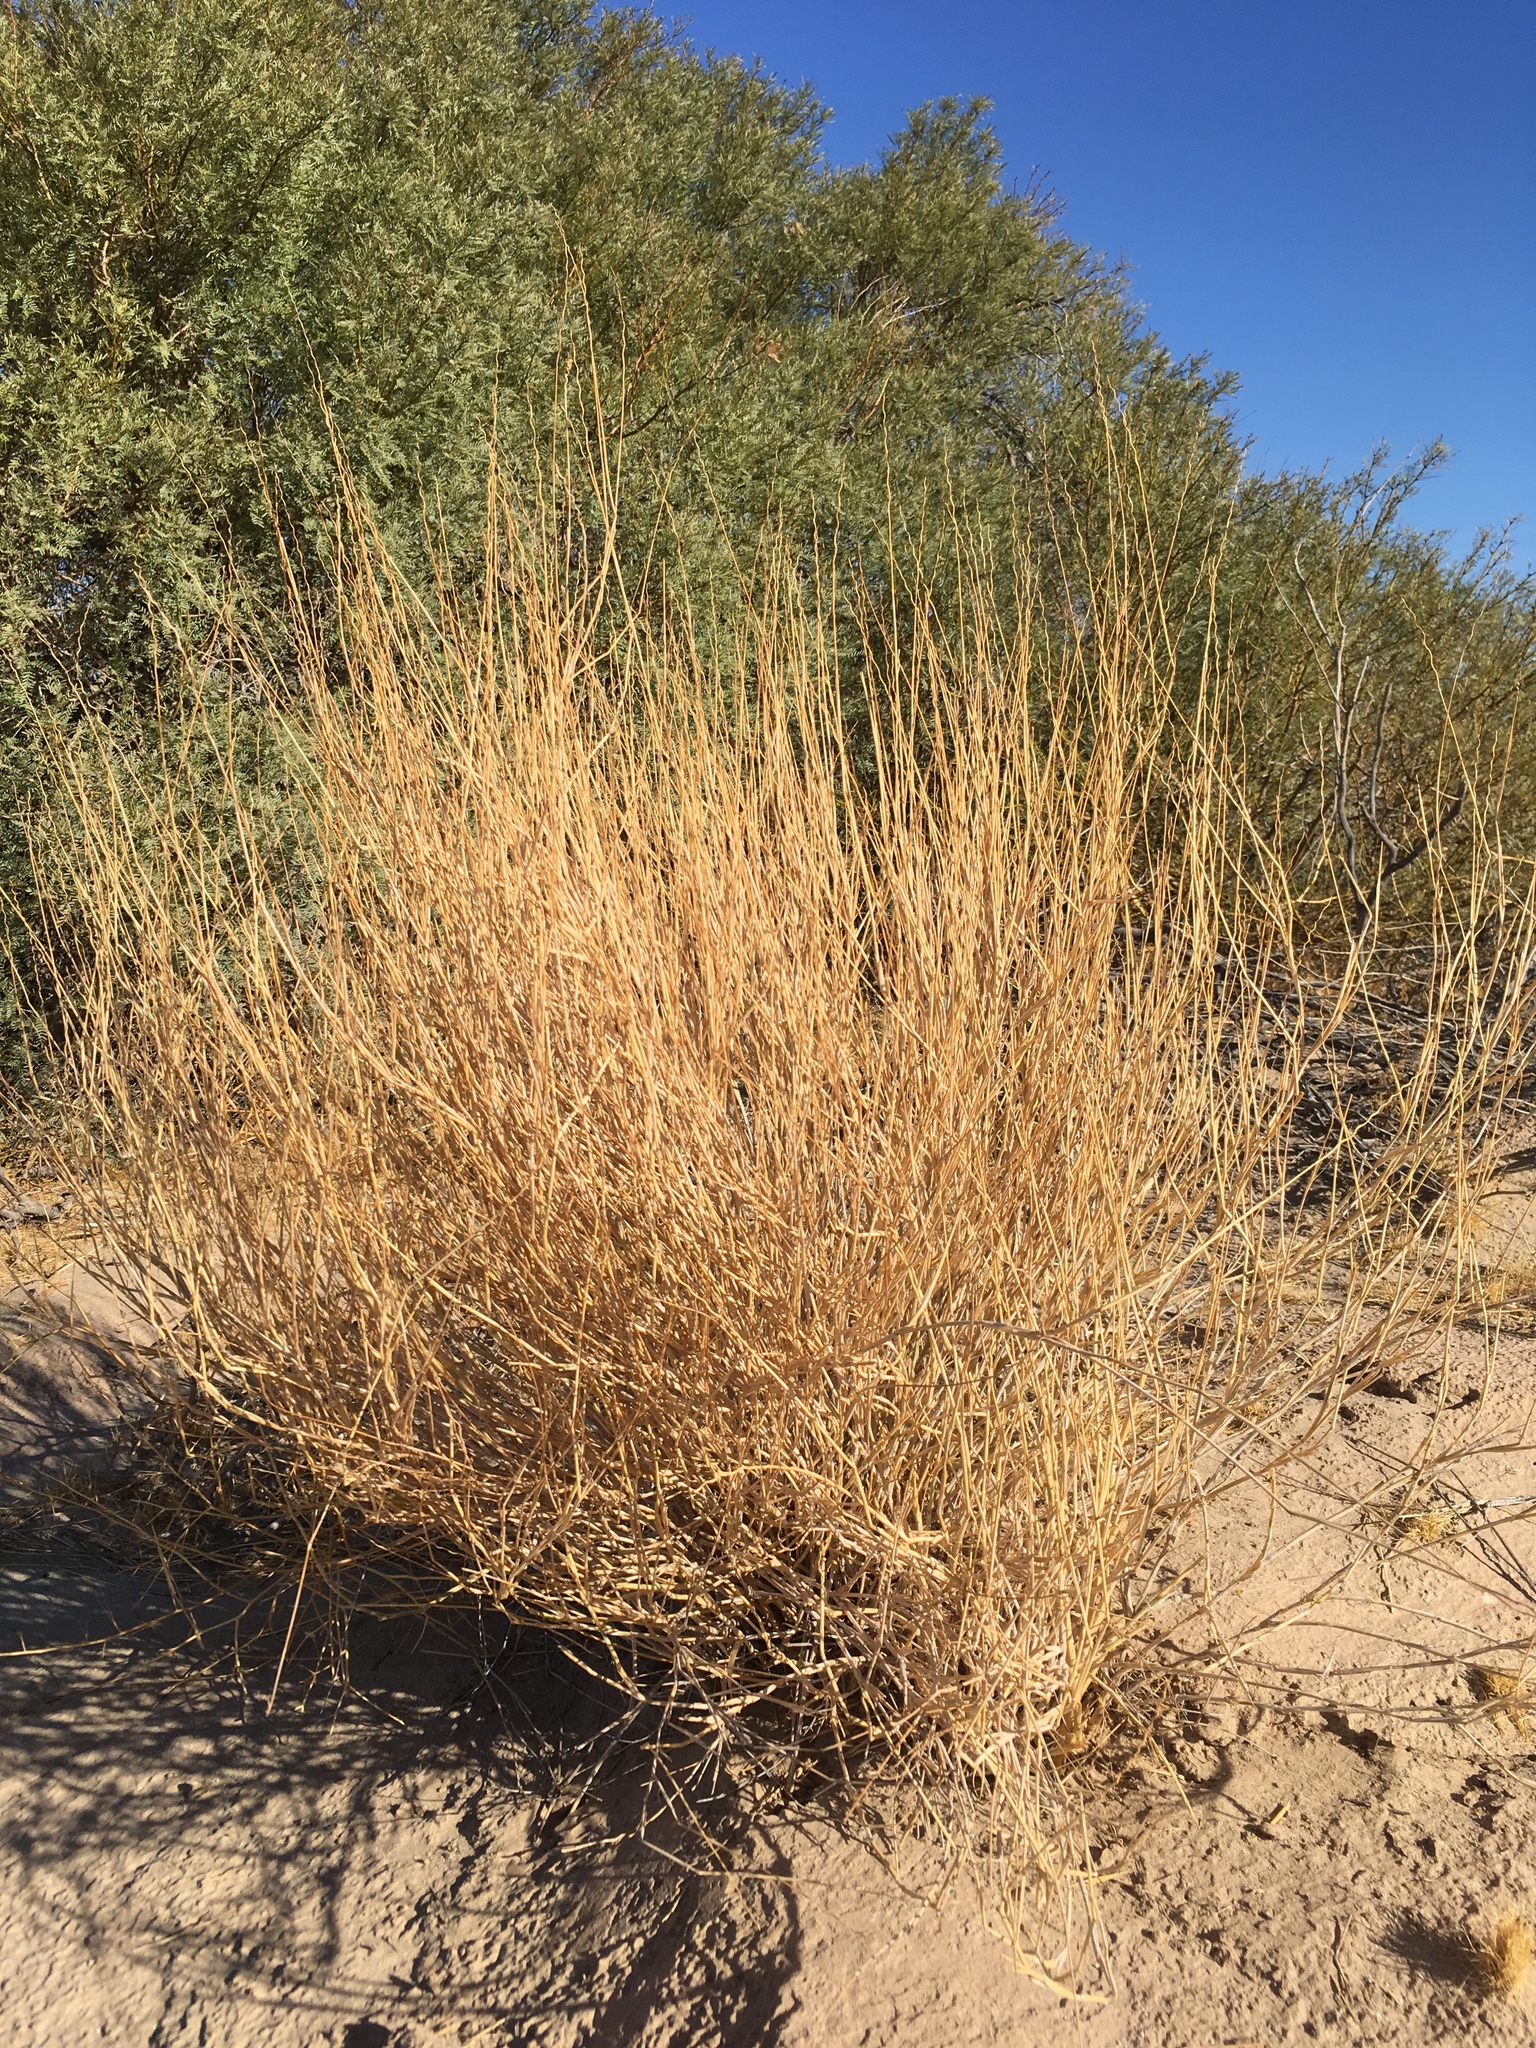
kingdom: Plantae
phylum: Tracheophyta
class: Liliopsida
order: Poales
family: Poaceae
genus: Hilaria
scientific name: Hilaria rigida
